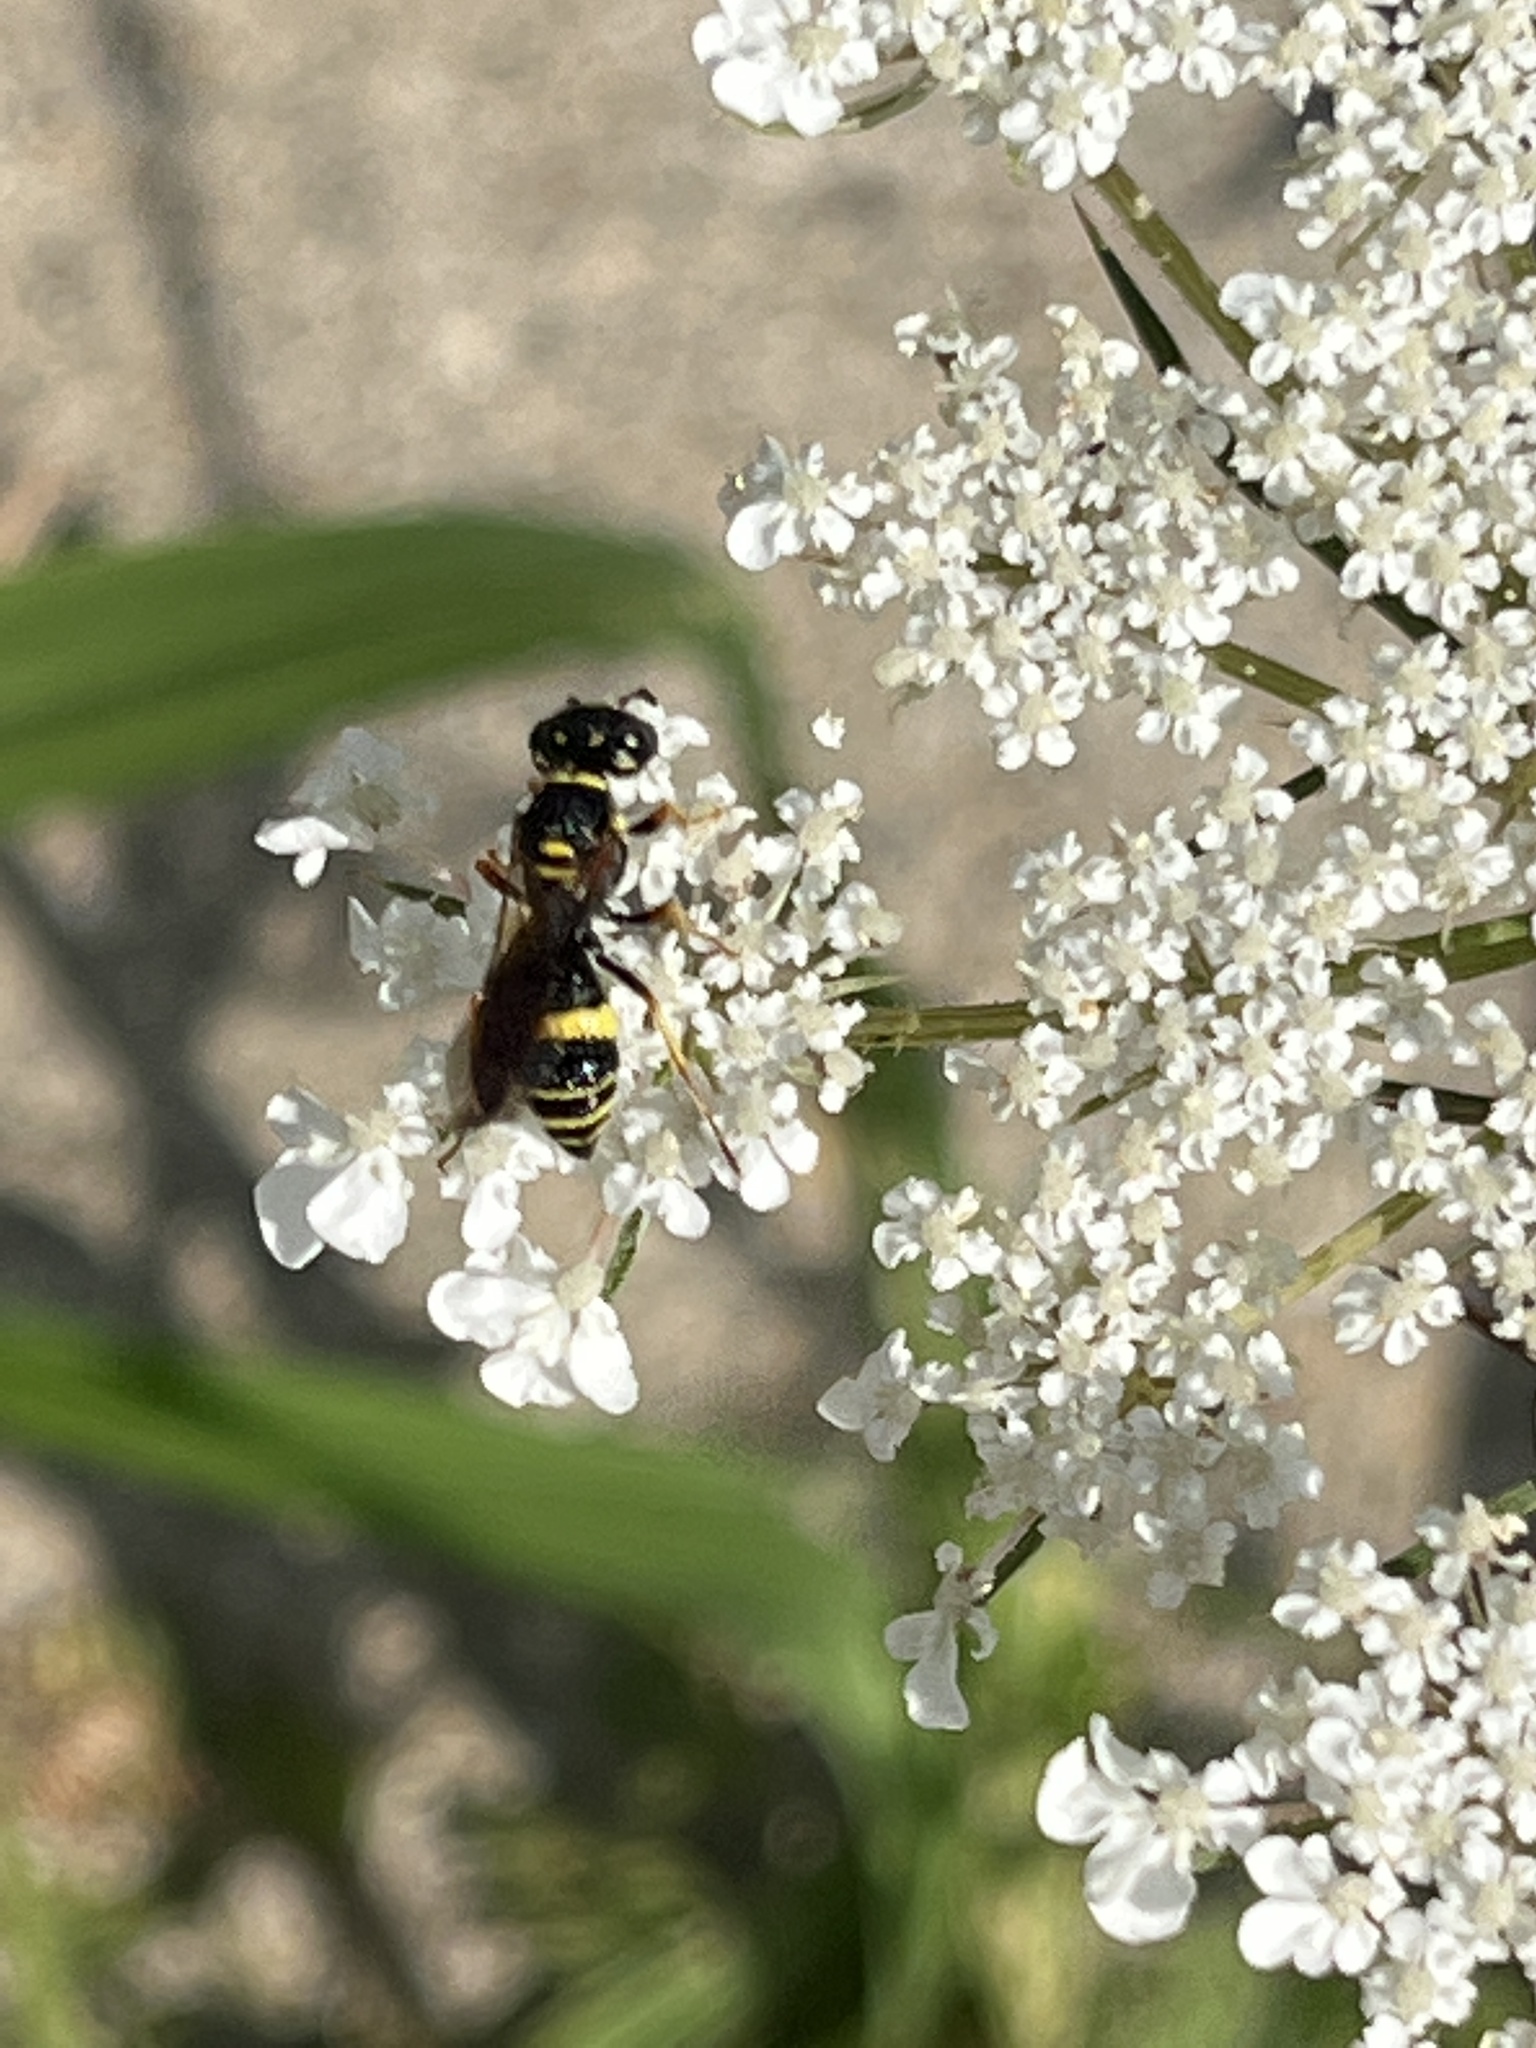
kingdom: Animalia
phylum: Arthropoda
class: Insecta
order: Hymenoptera
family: Crabronidae
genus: Philanthus
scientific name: Philanthus gibbosus
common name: Humped beewolf
